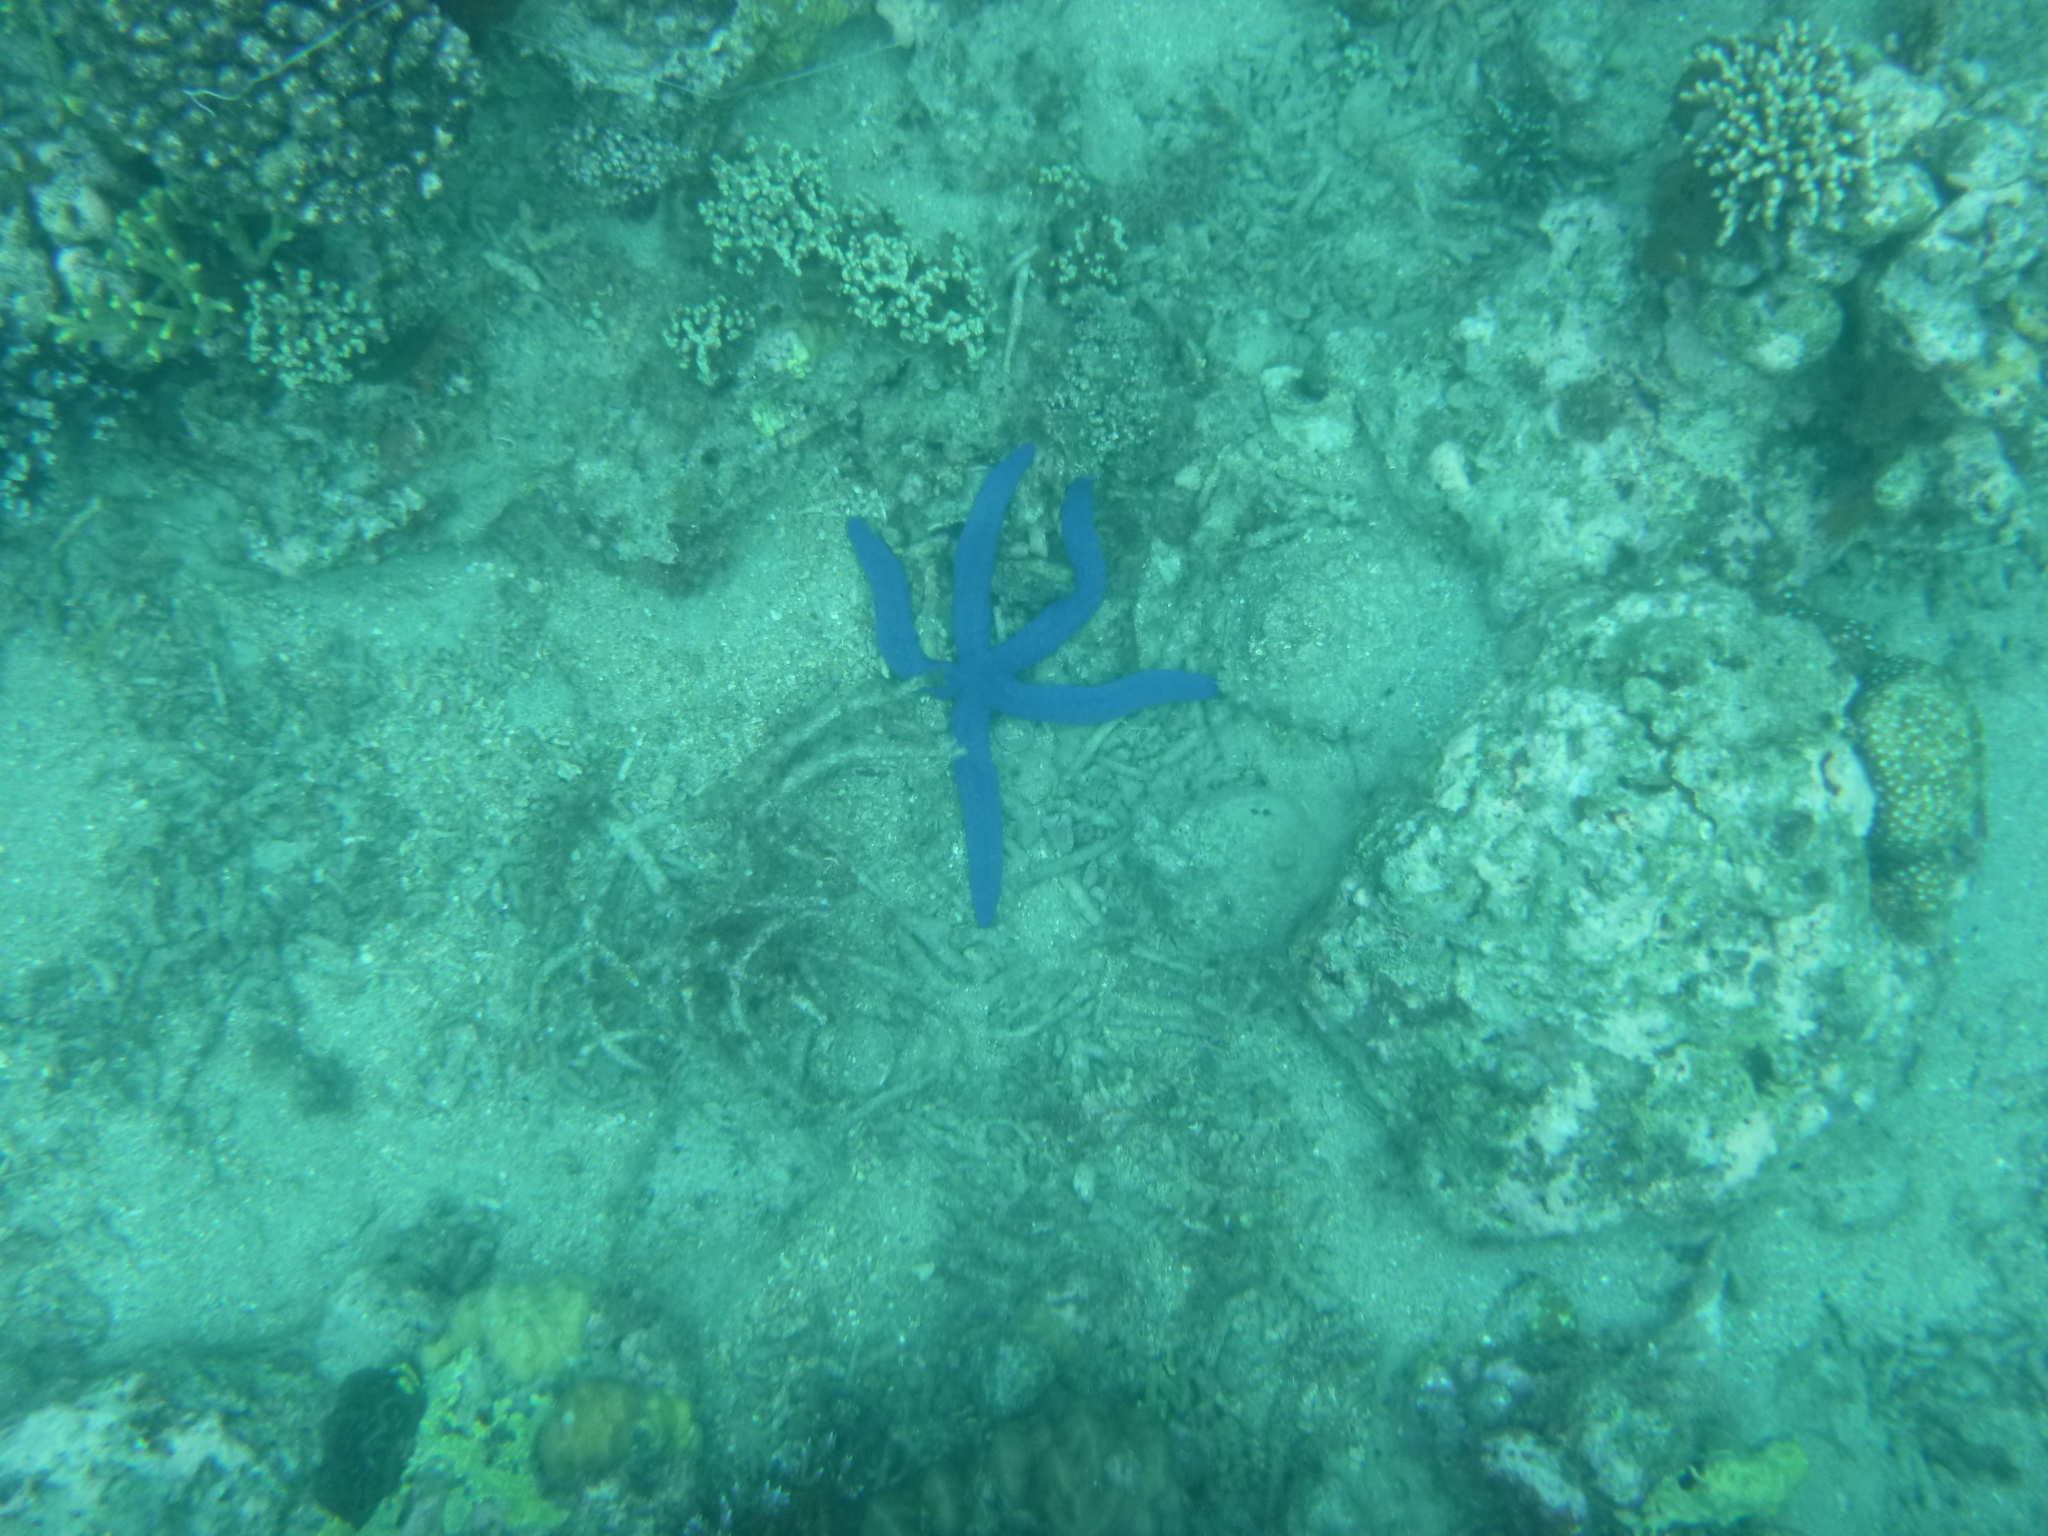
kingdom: Animalia
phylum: Echinodermata
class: Asteroidea
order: Valvatida
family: Ophidiasteridae
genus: Linckia
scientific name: Linckia laevigata
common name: Azure sea star
